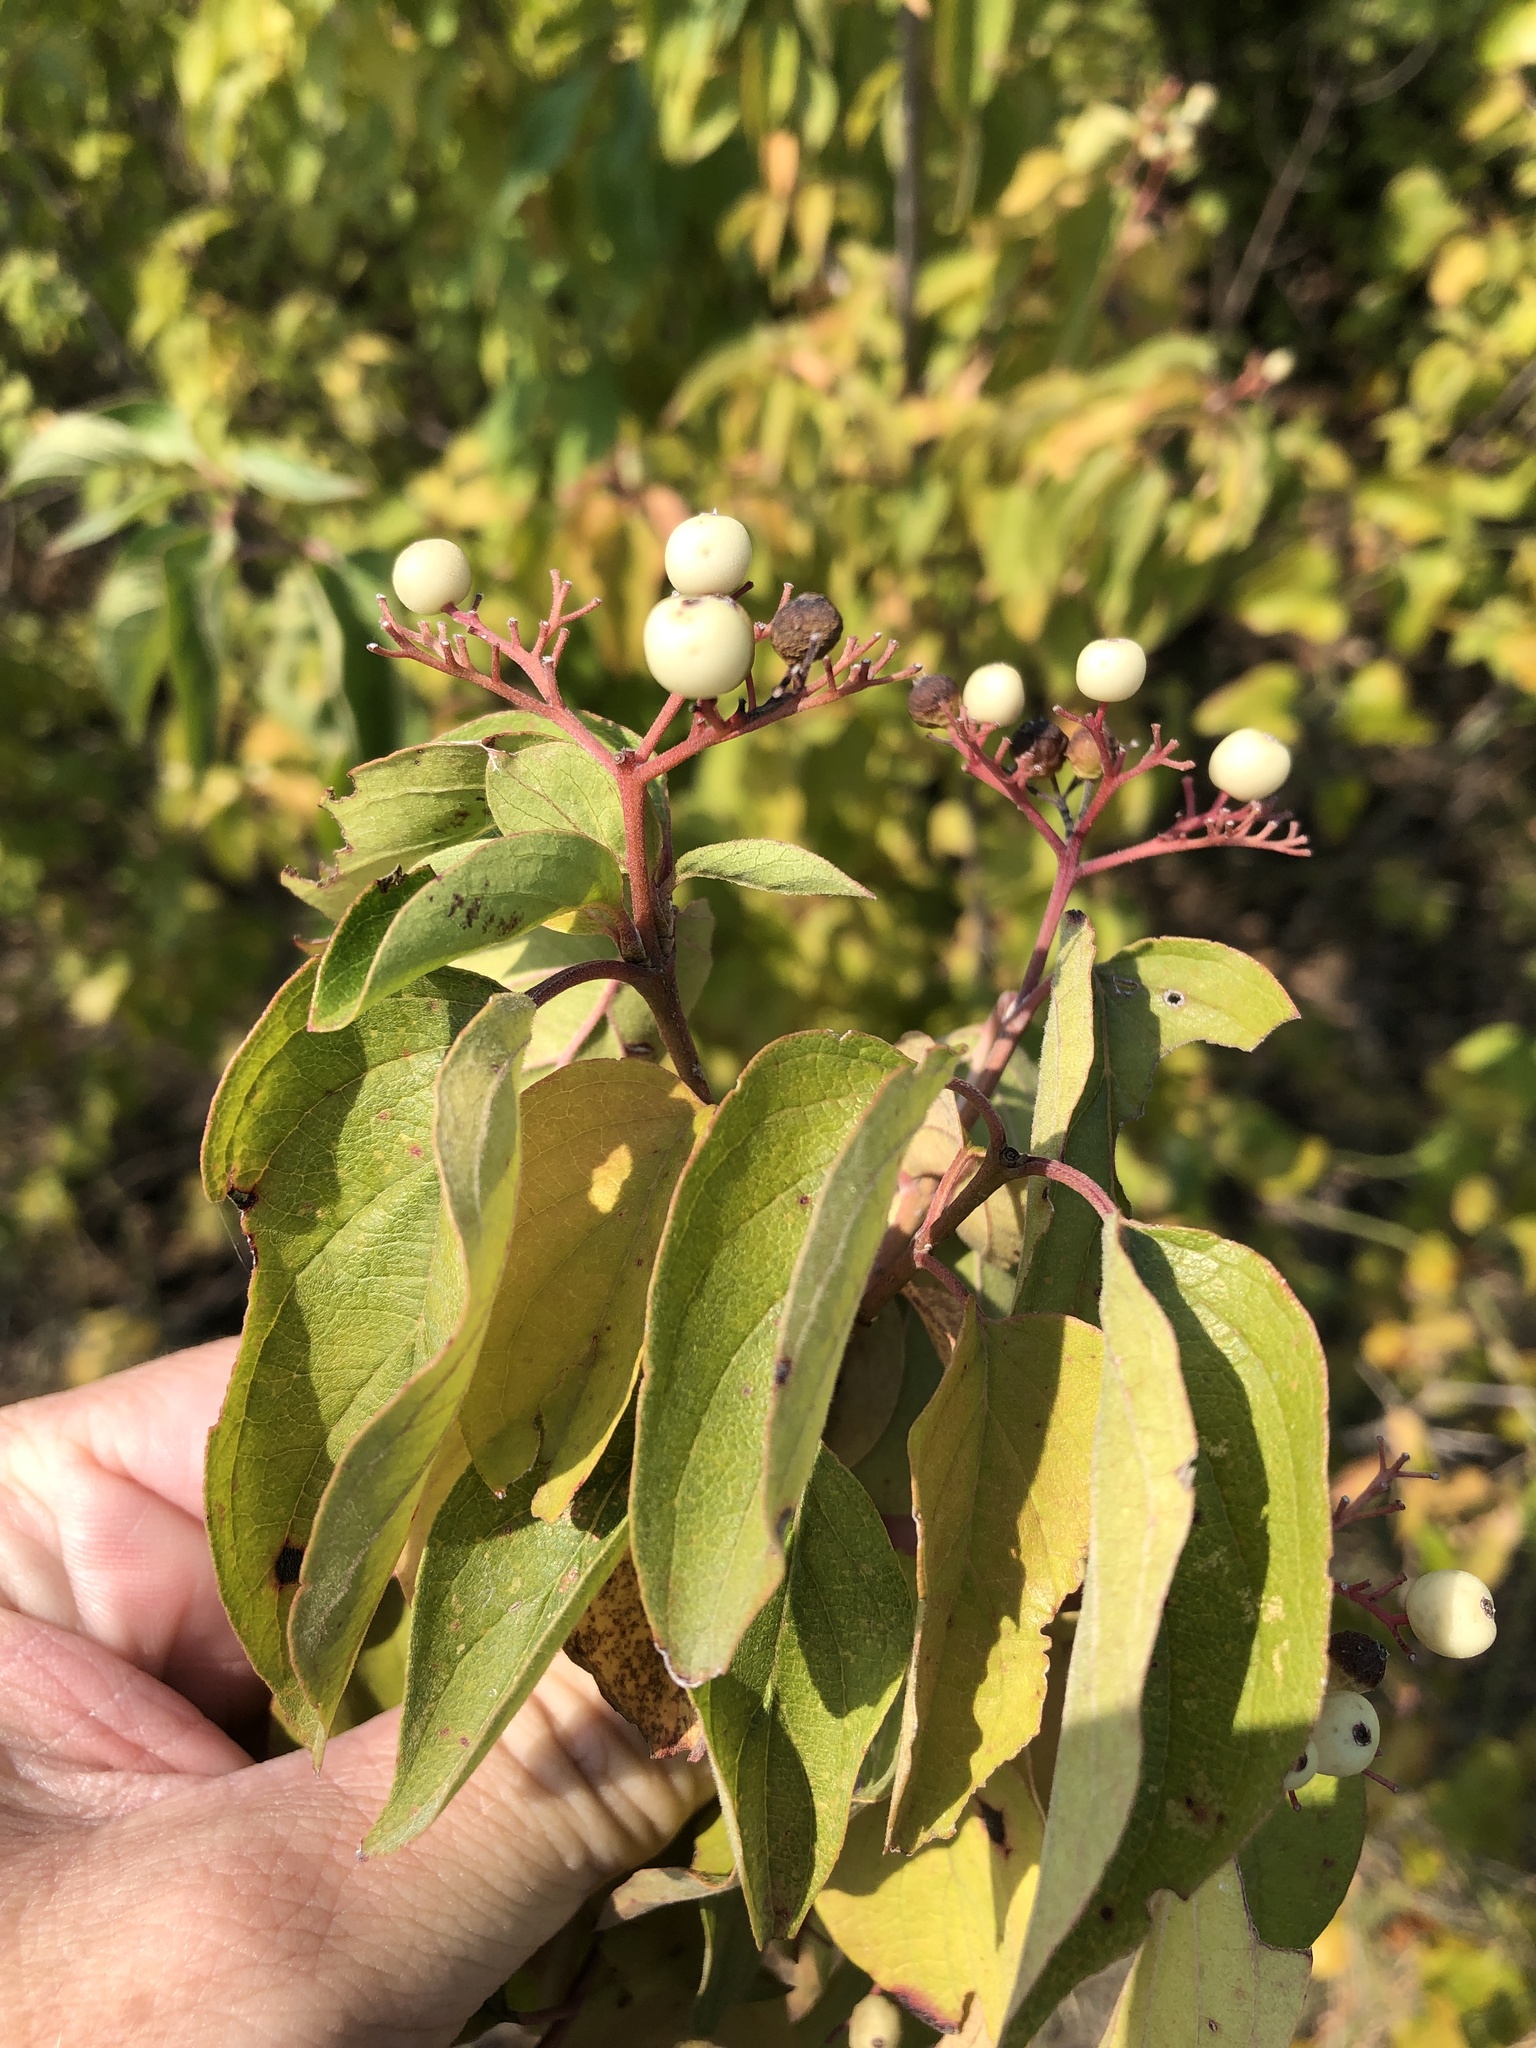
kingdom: Plantae
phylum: Tracheophyta
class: Magnoliopsida
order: Cornales
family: Cornaceae
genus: Cornus
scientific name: Cornus drummondii
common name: Rough-leaf dogwood
